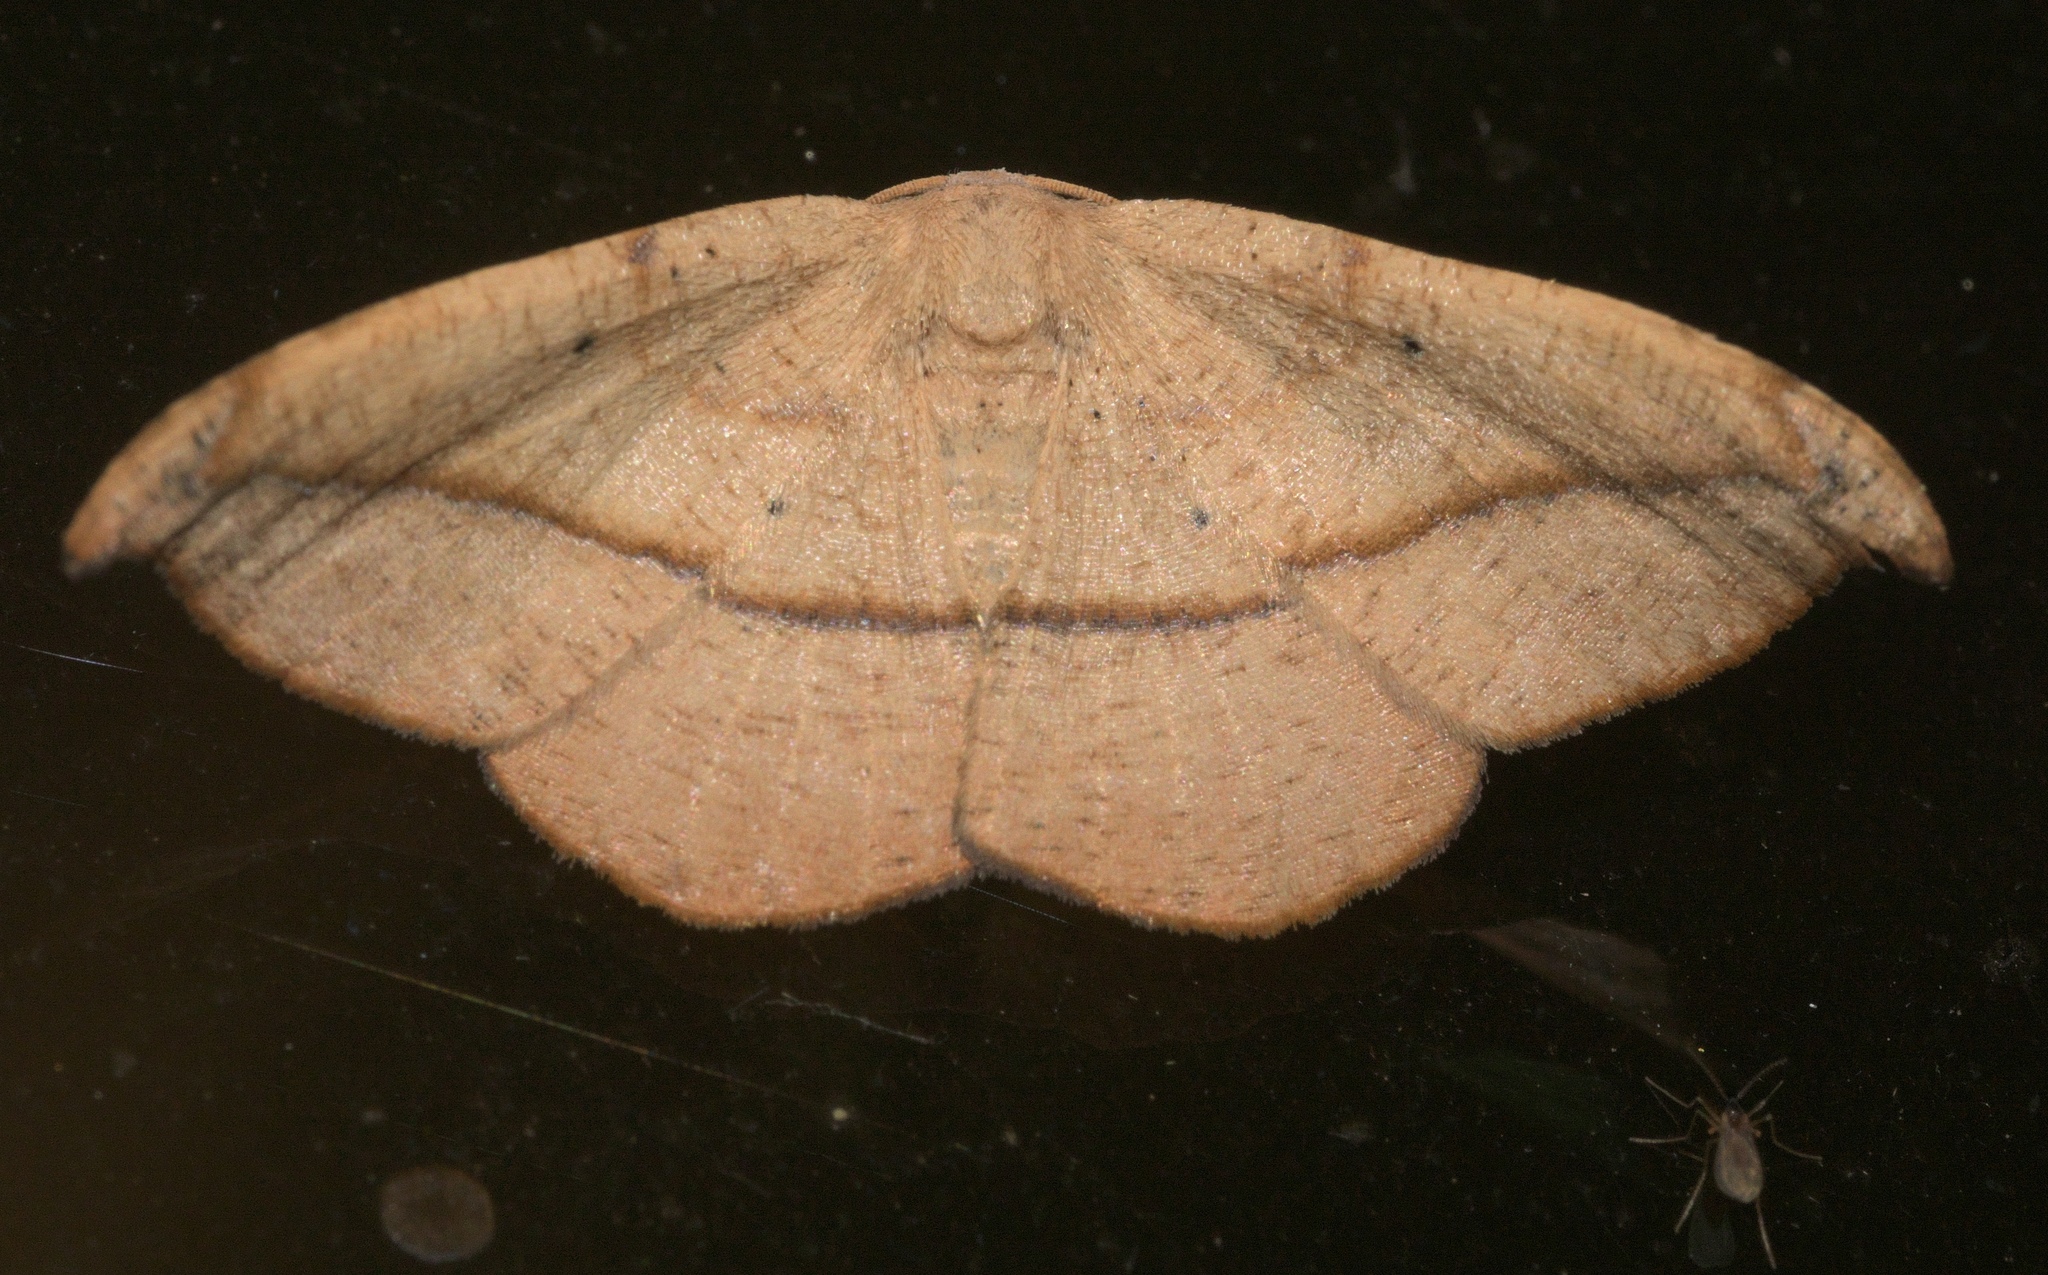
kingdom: Animalia
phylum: Arthropoda
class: Insecta
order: Lepidoptera
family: Geometridae
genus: Patalene
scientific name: Patalene olyzonaria
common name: Juniper geometer moth
